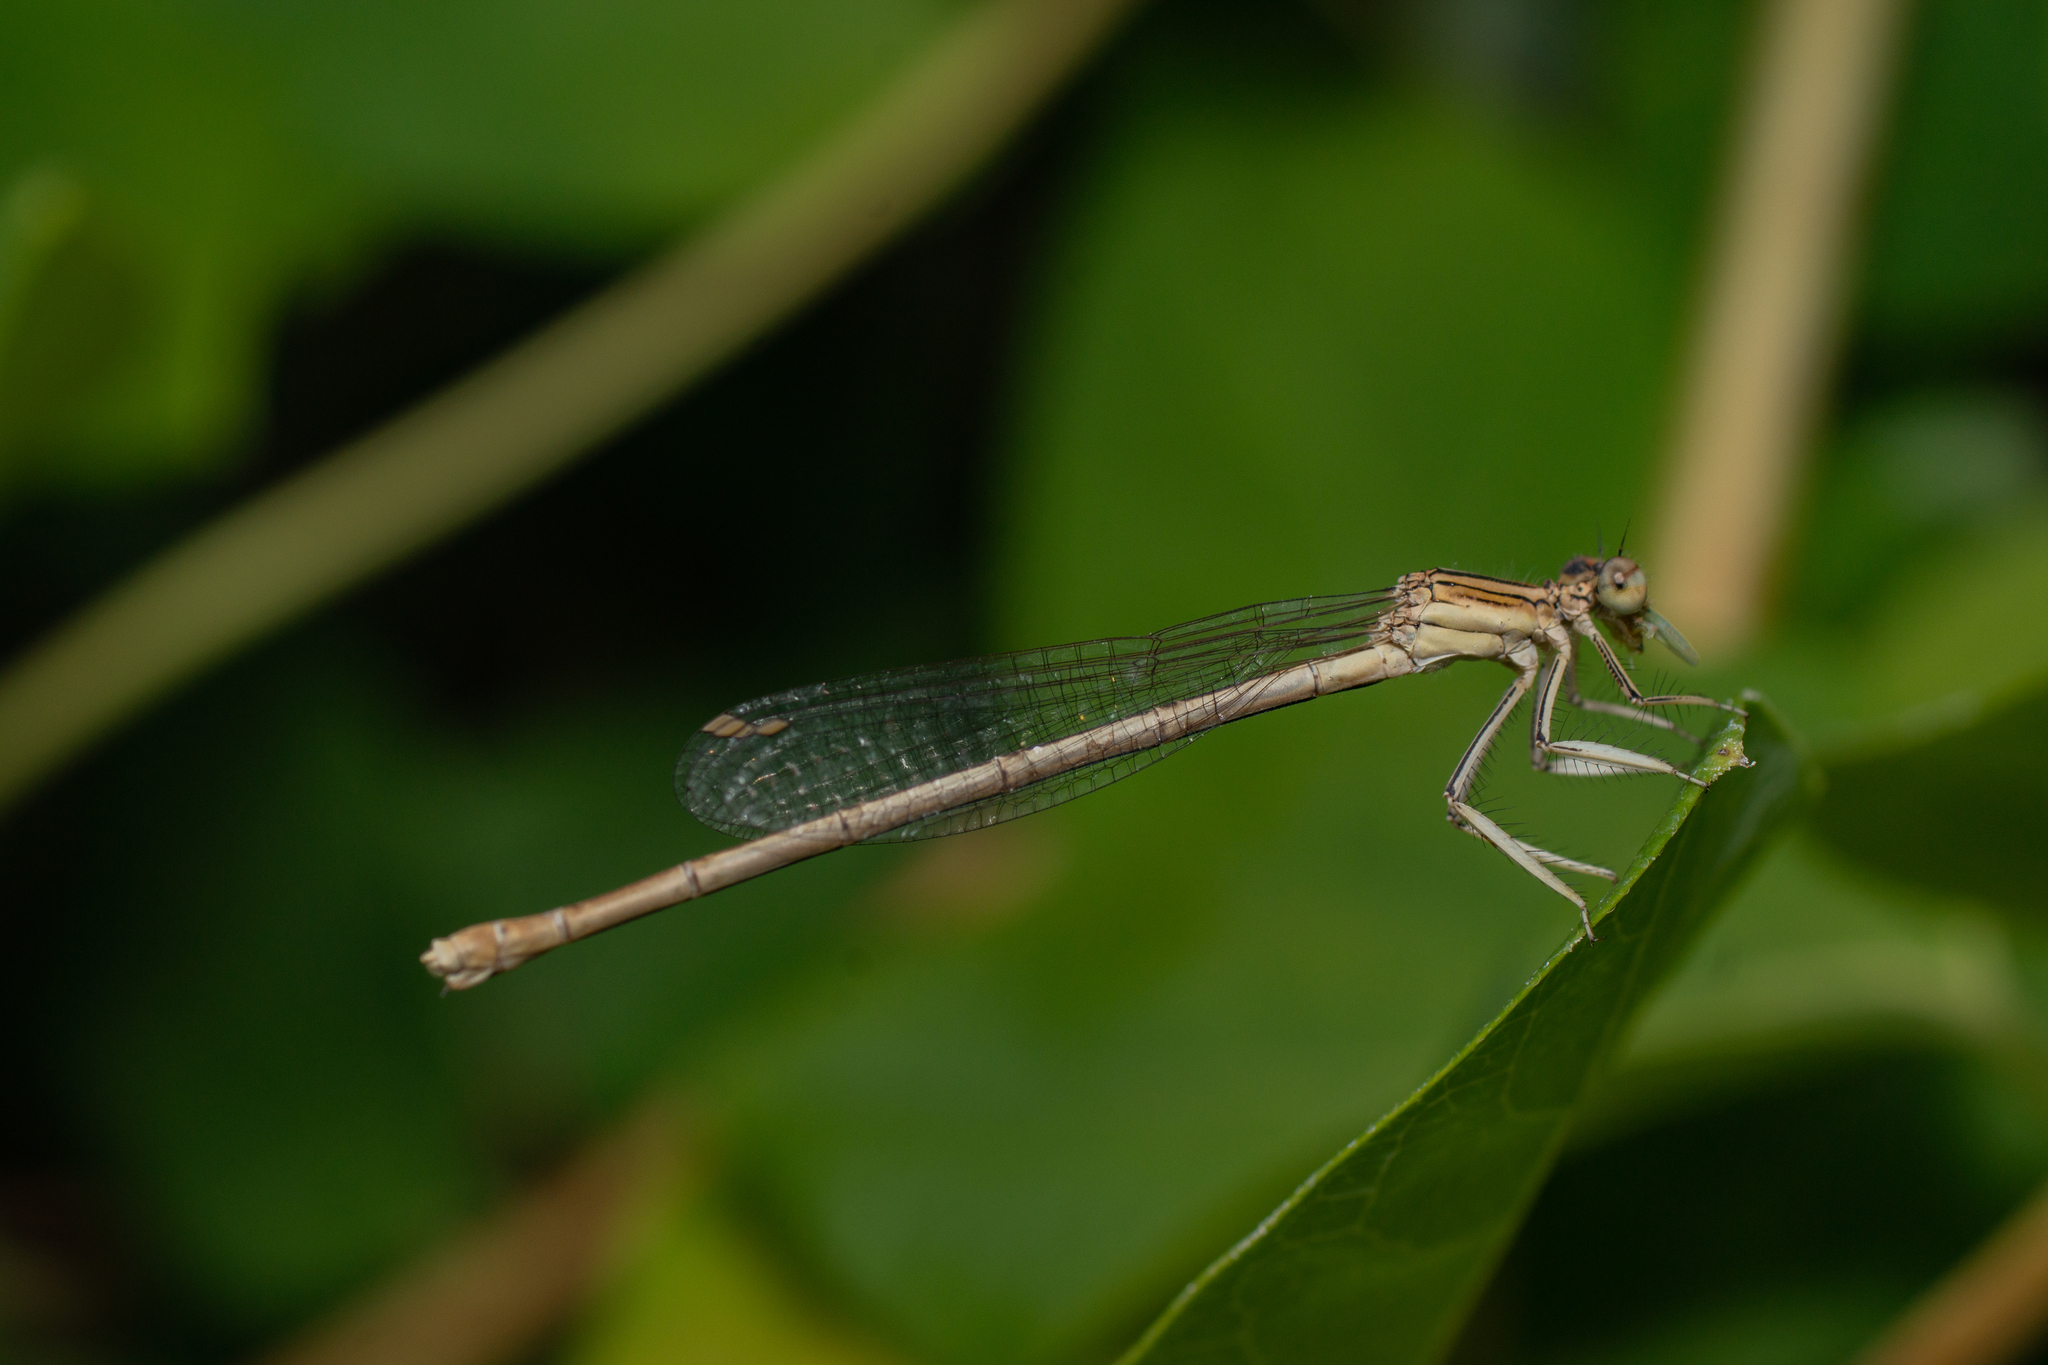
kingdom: Animalia
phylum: Arthropoda
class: Insecta
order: Odonata
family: Platycnemididae
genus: Platycnemis
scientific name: Platycnemis latipes
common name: White featherleg
